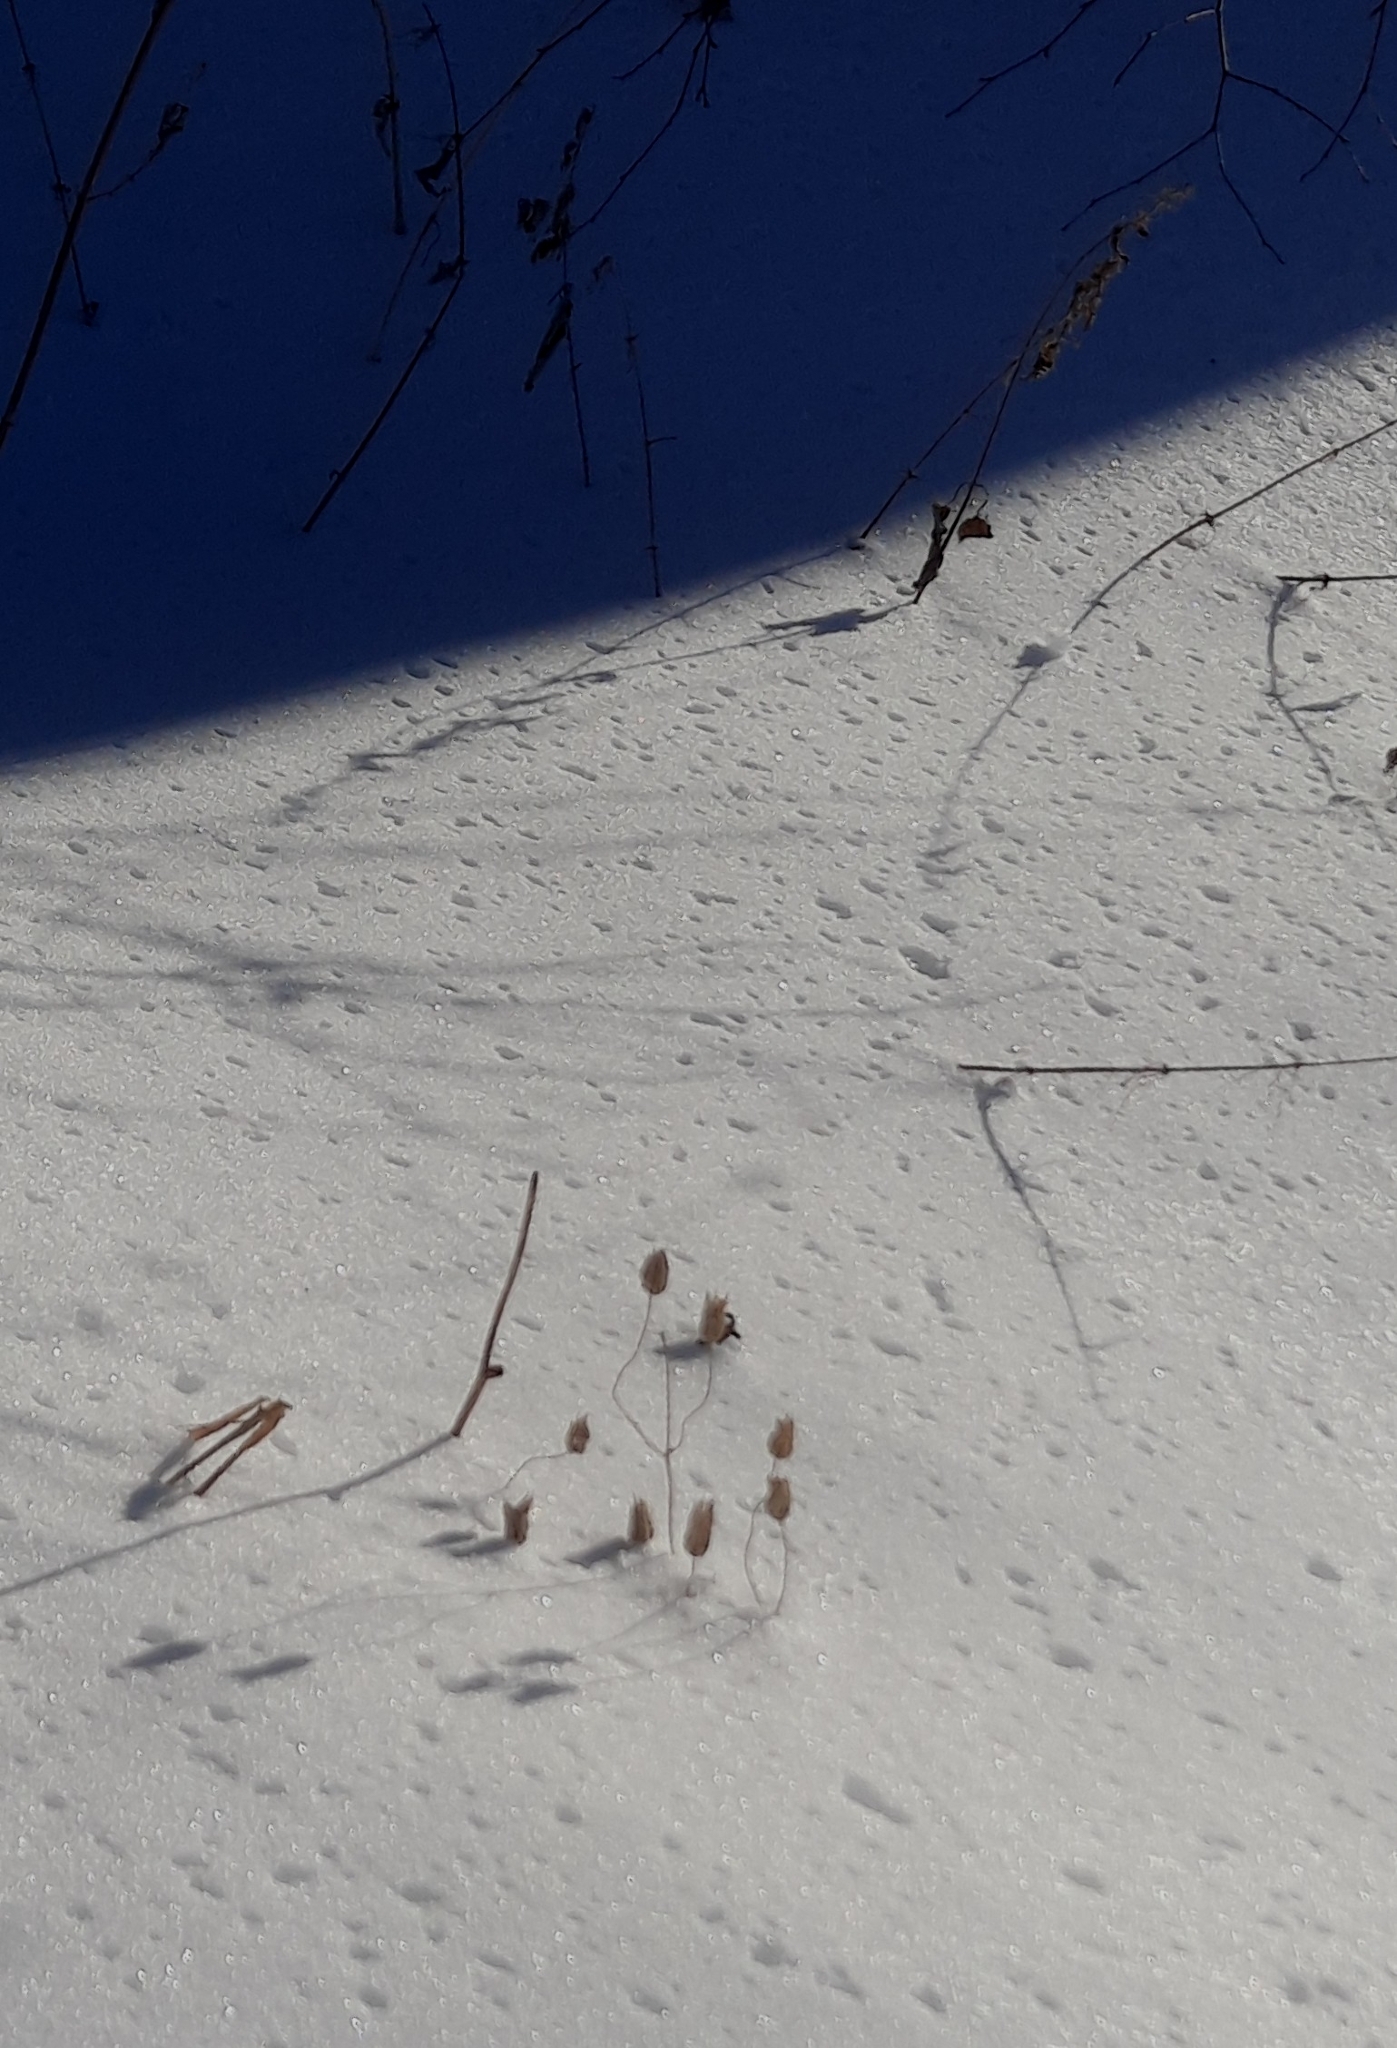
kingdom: Plantae
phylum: Tracheophyta
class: Magnoliopsida
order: Ranunculales
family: Ranunculaceae
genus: Aquilegia
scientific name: Aquilegia vulgaris
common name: Columbine
